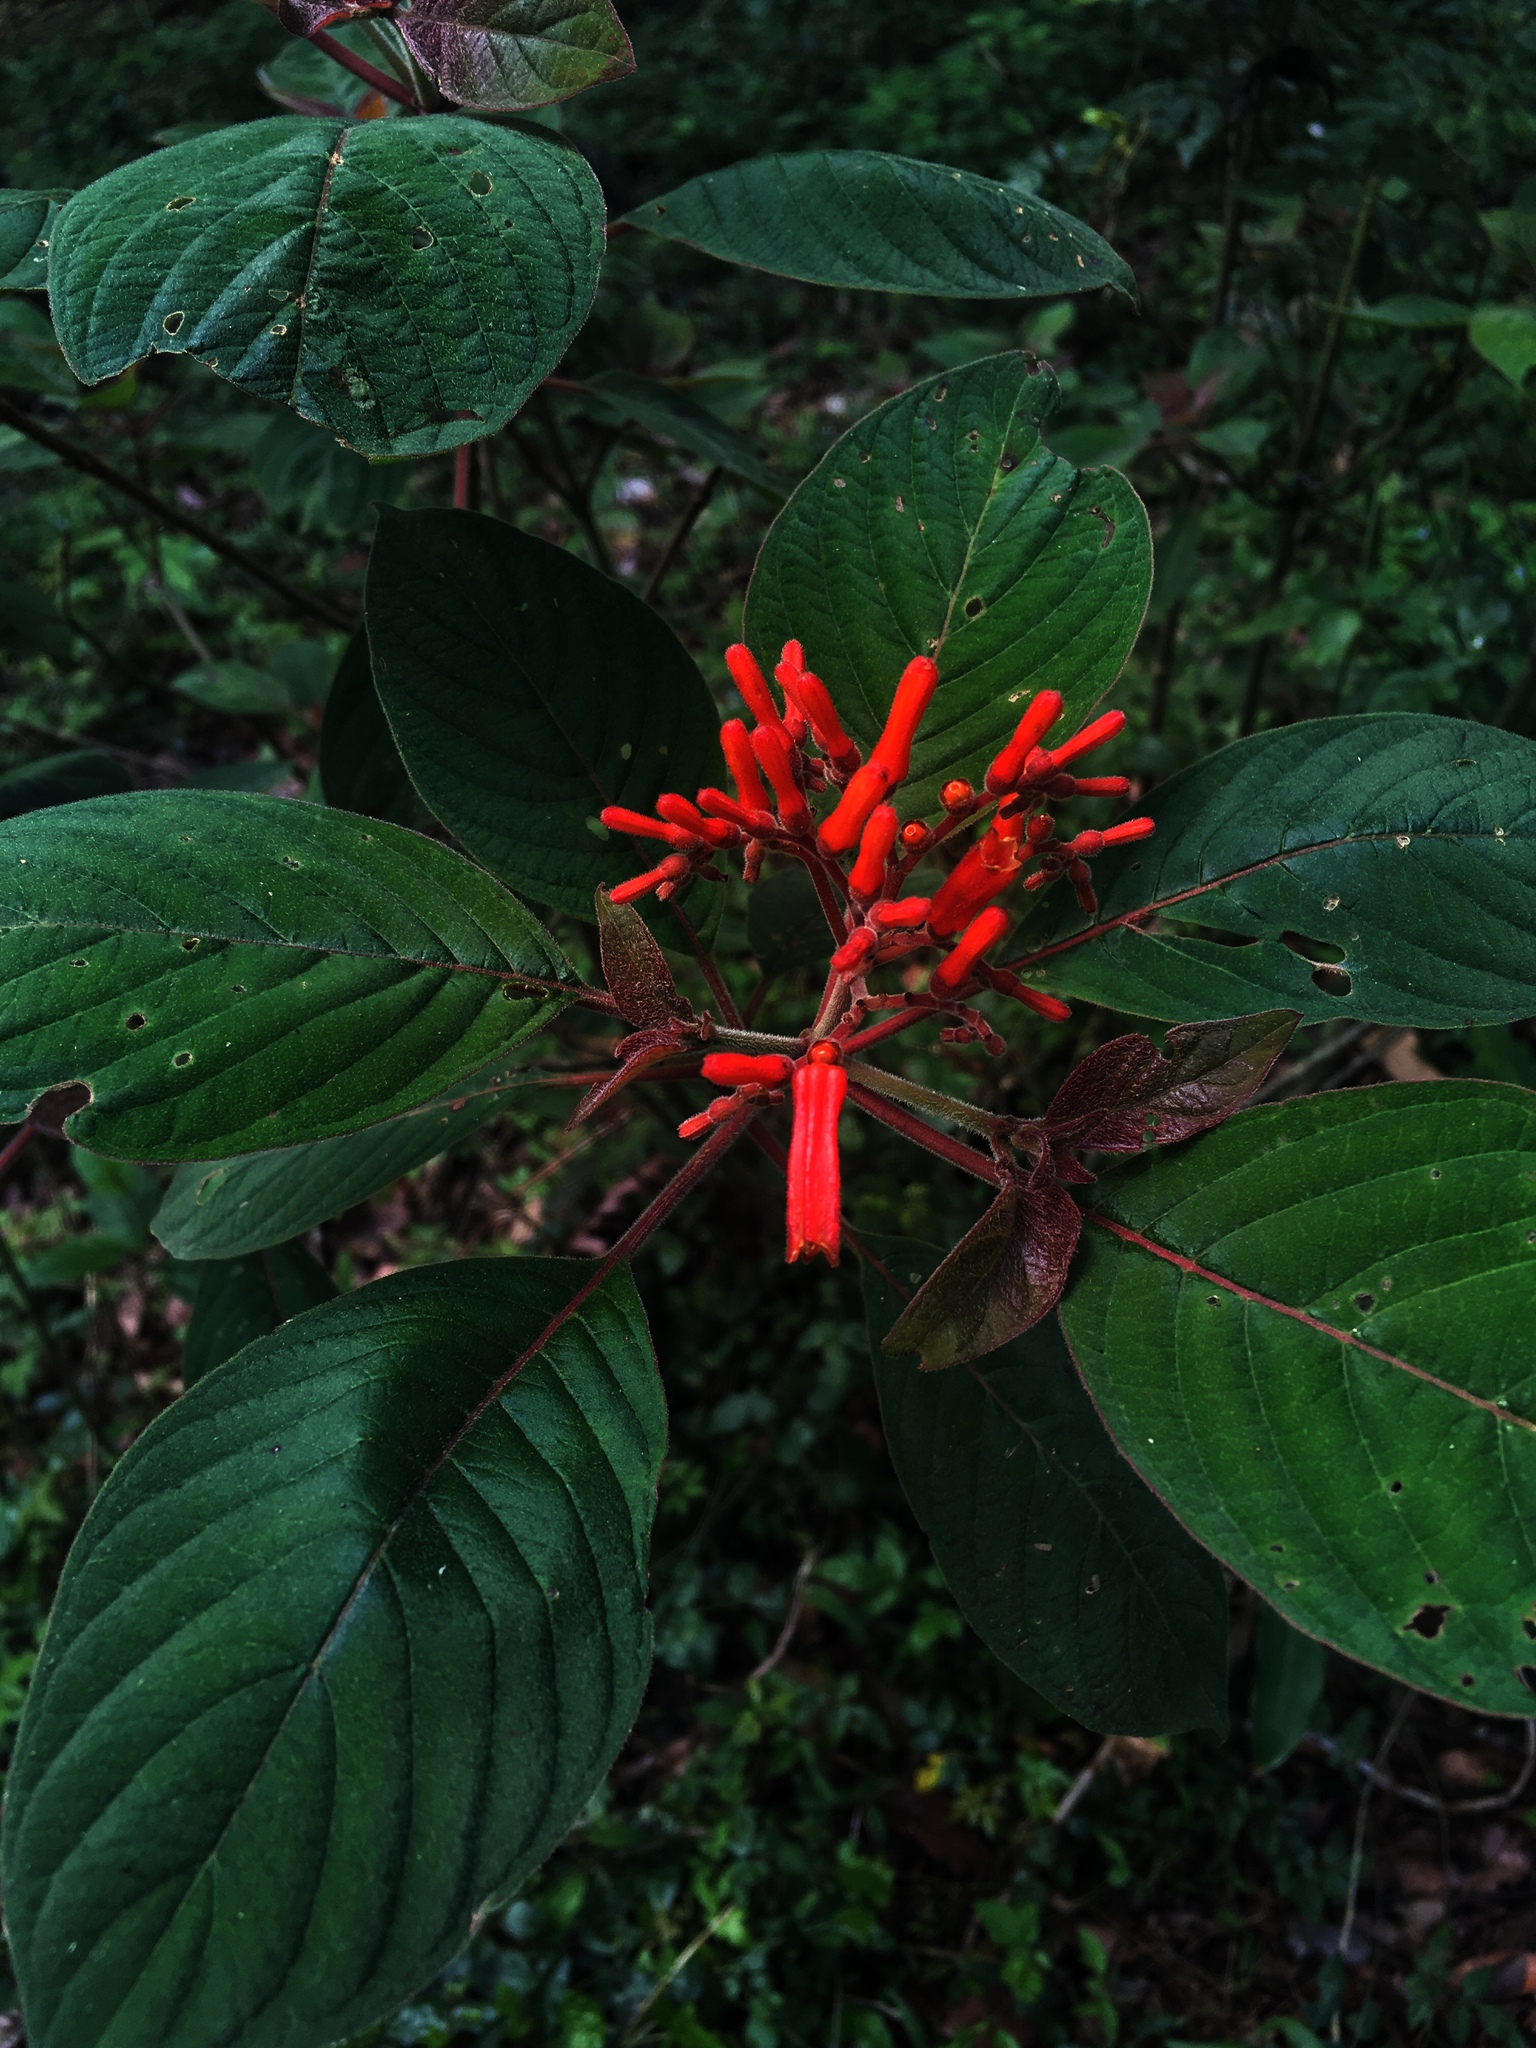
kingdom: Plantae
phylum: Tracheophyta
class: Magnoliopsida
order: Gentianales
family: Rubiaceae
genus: Hamelia
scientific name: Hamelia patens
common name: Redhead
